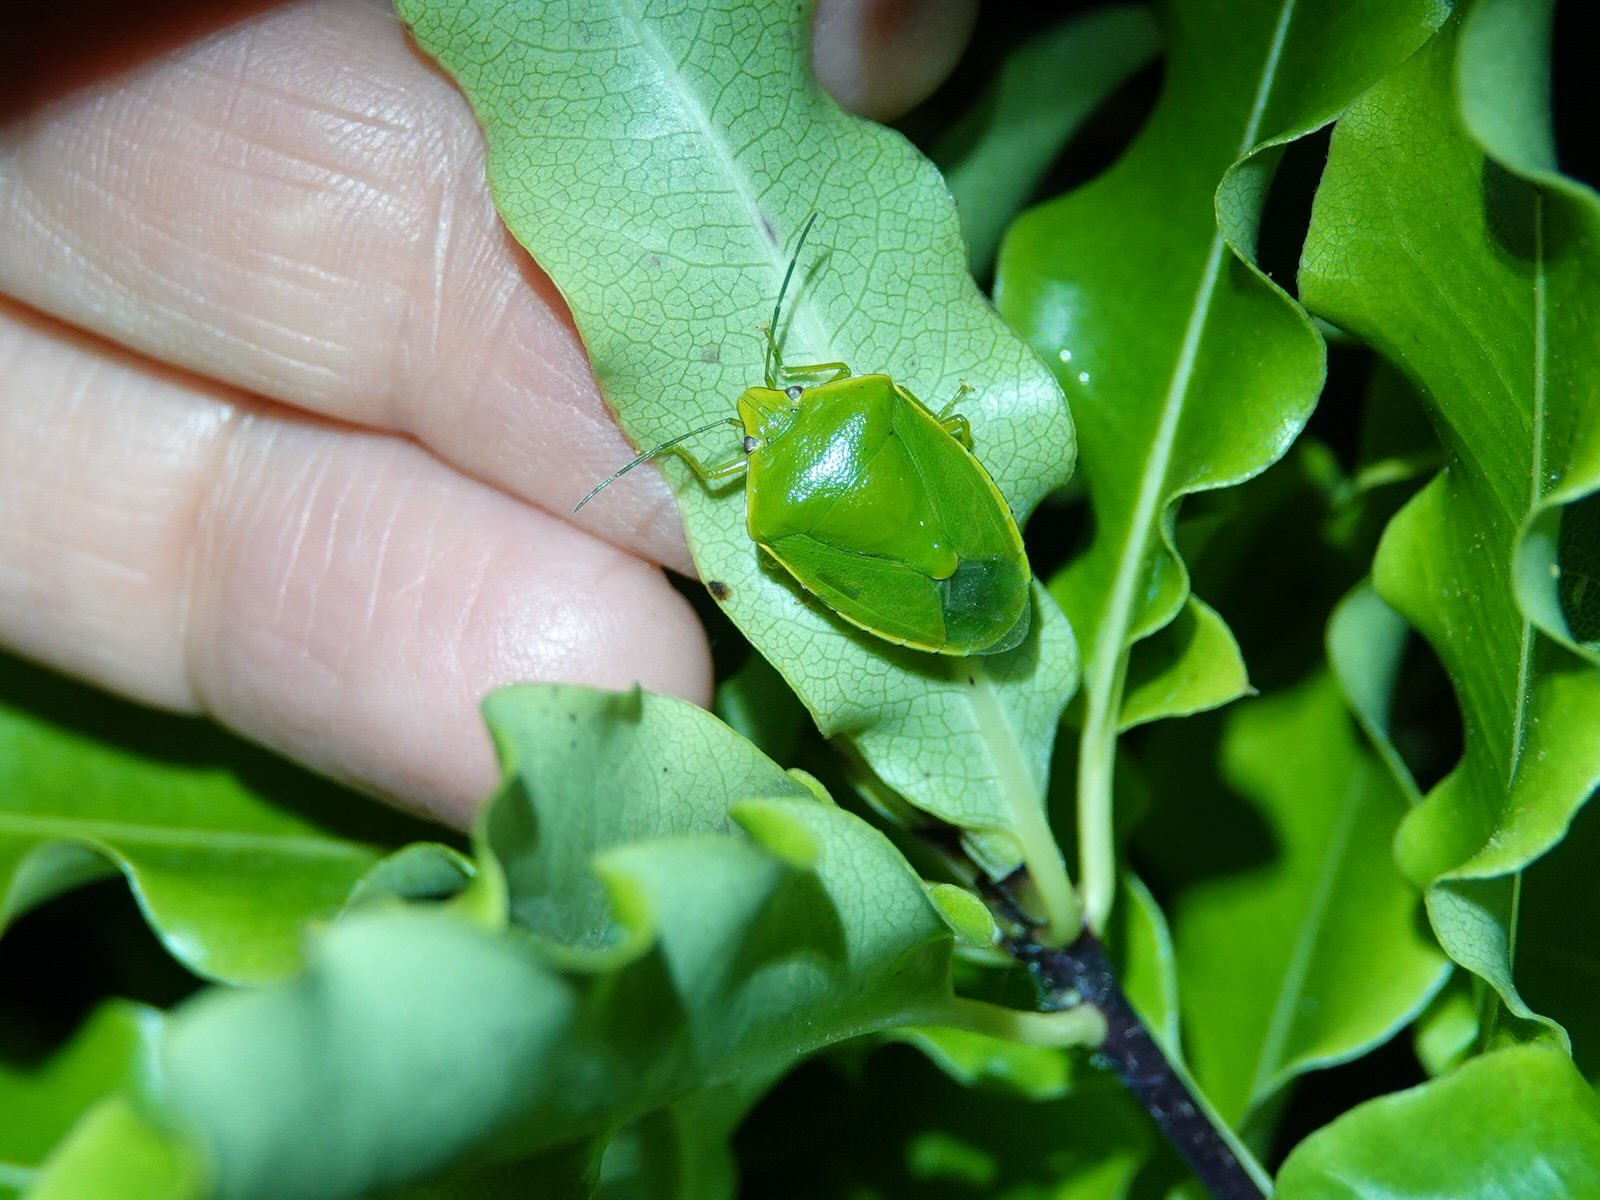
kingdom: Animalia
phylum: Arthropoda
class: Insecta
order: Hemiptera
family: Pentatomidae
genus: Glaucias
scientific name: Glaucias amyota
